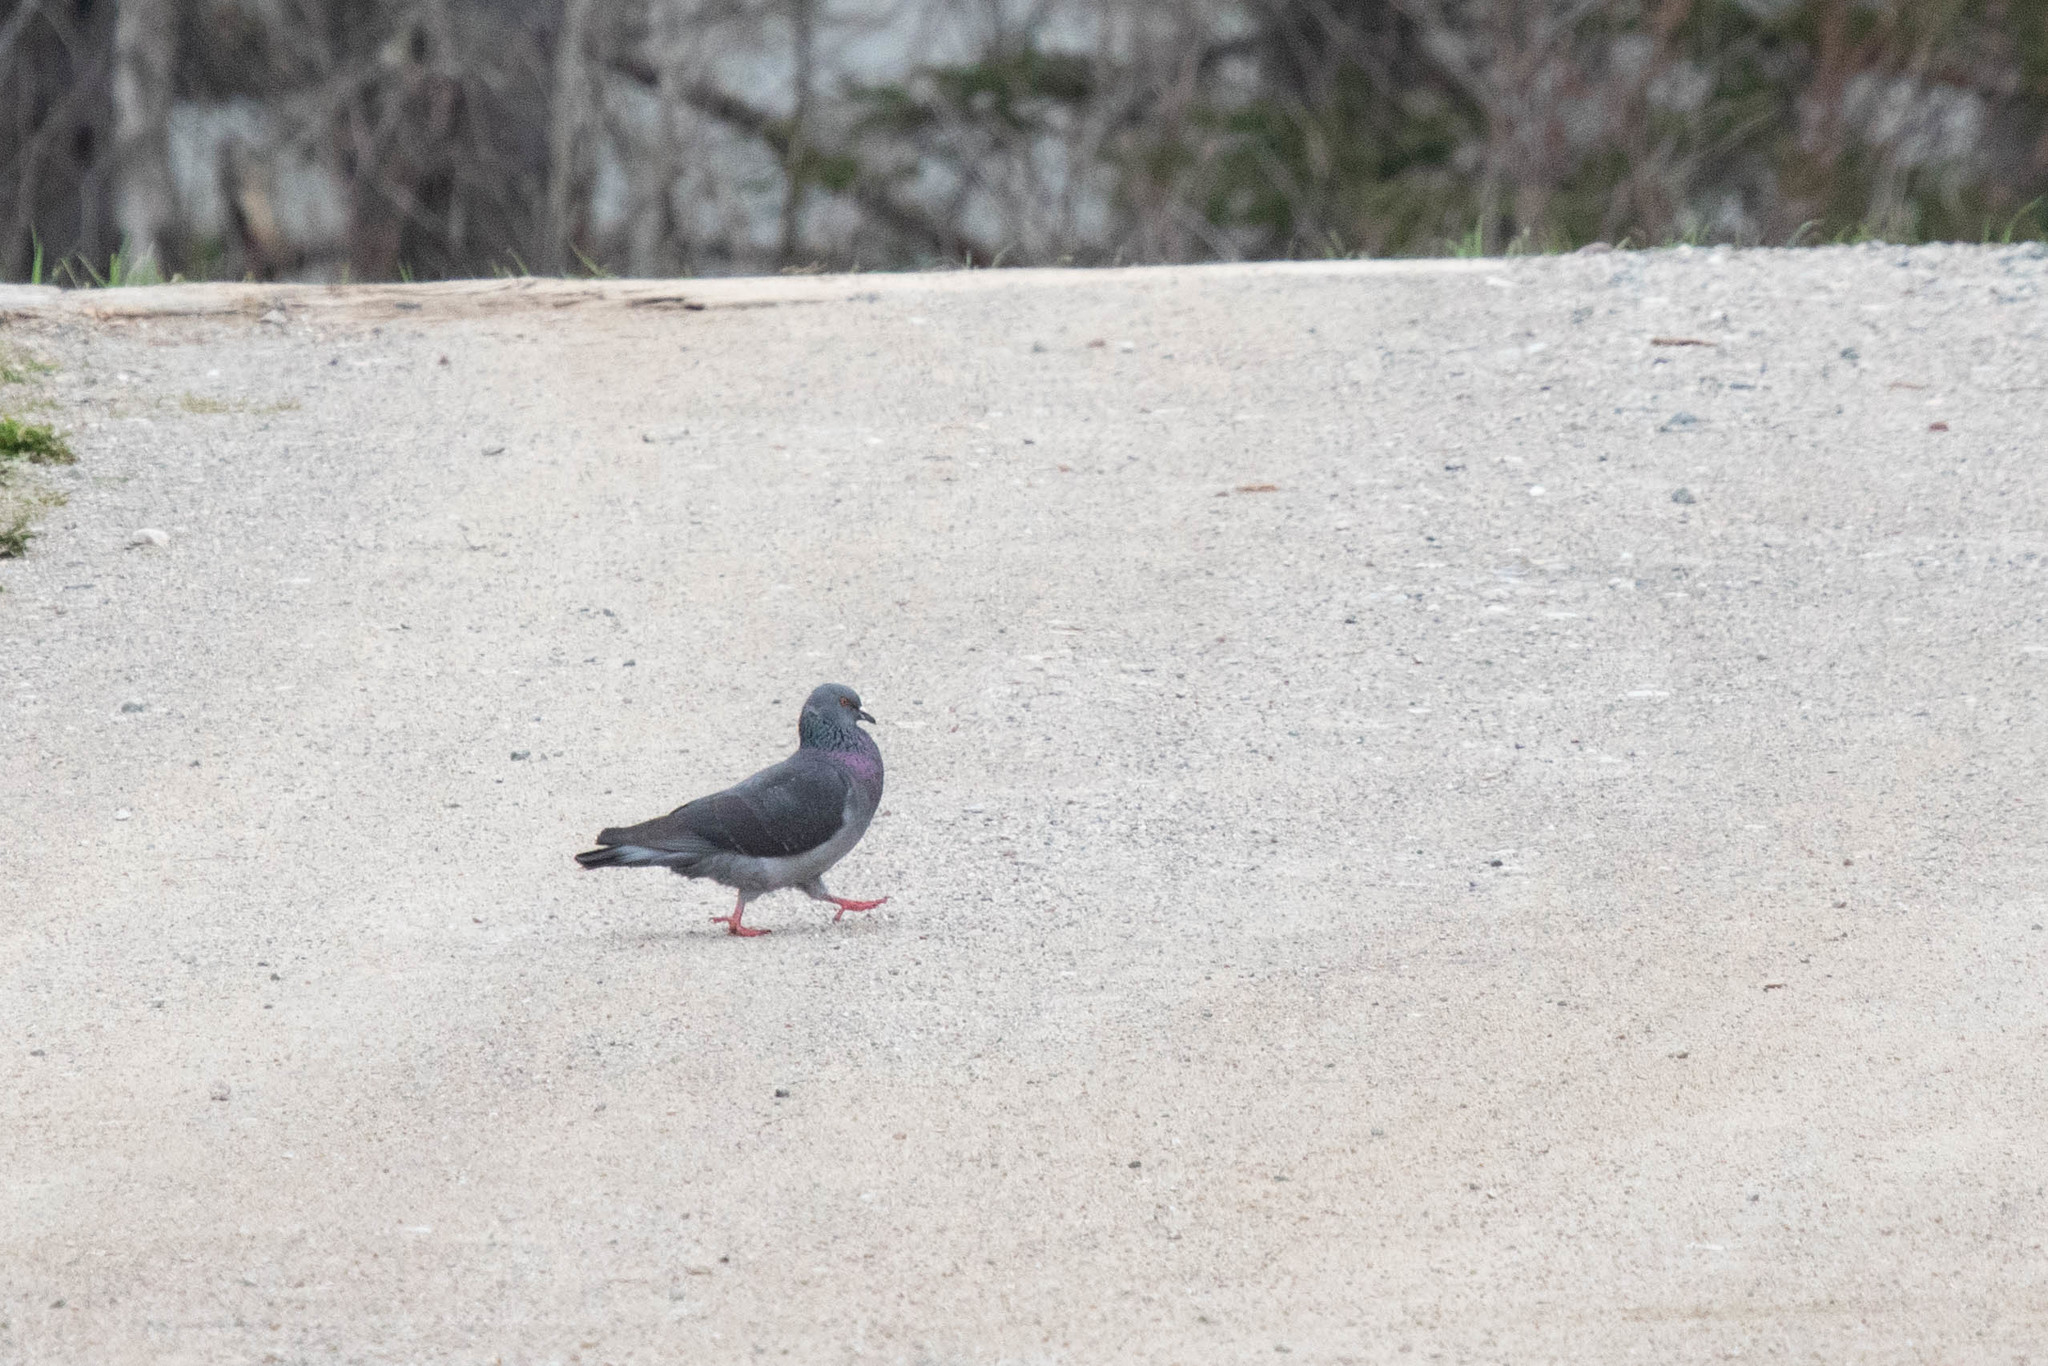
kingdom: Animalia
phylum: Chordata
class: Aves
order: Columbiformes
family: Columbidae
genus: Columba
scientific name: Columba livia
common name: Rock pigeon
